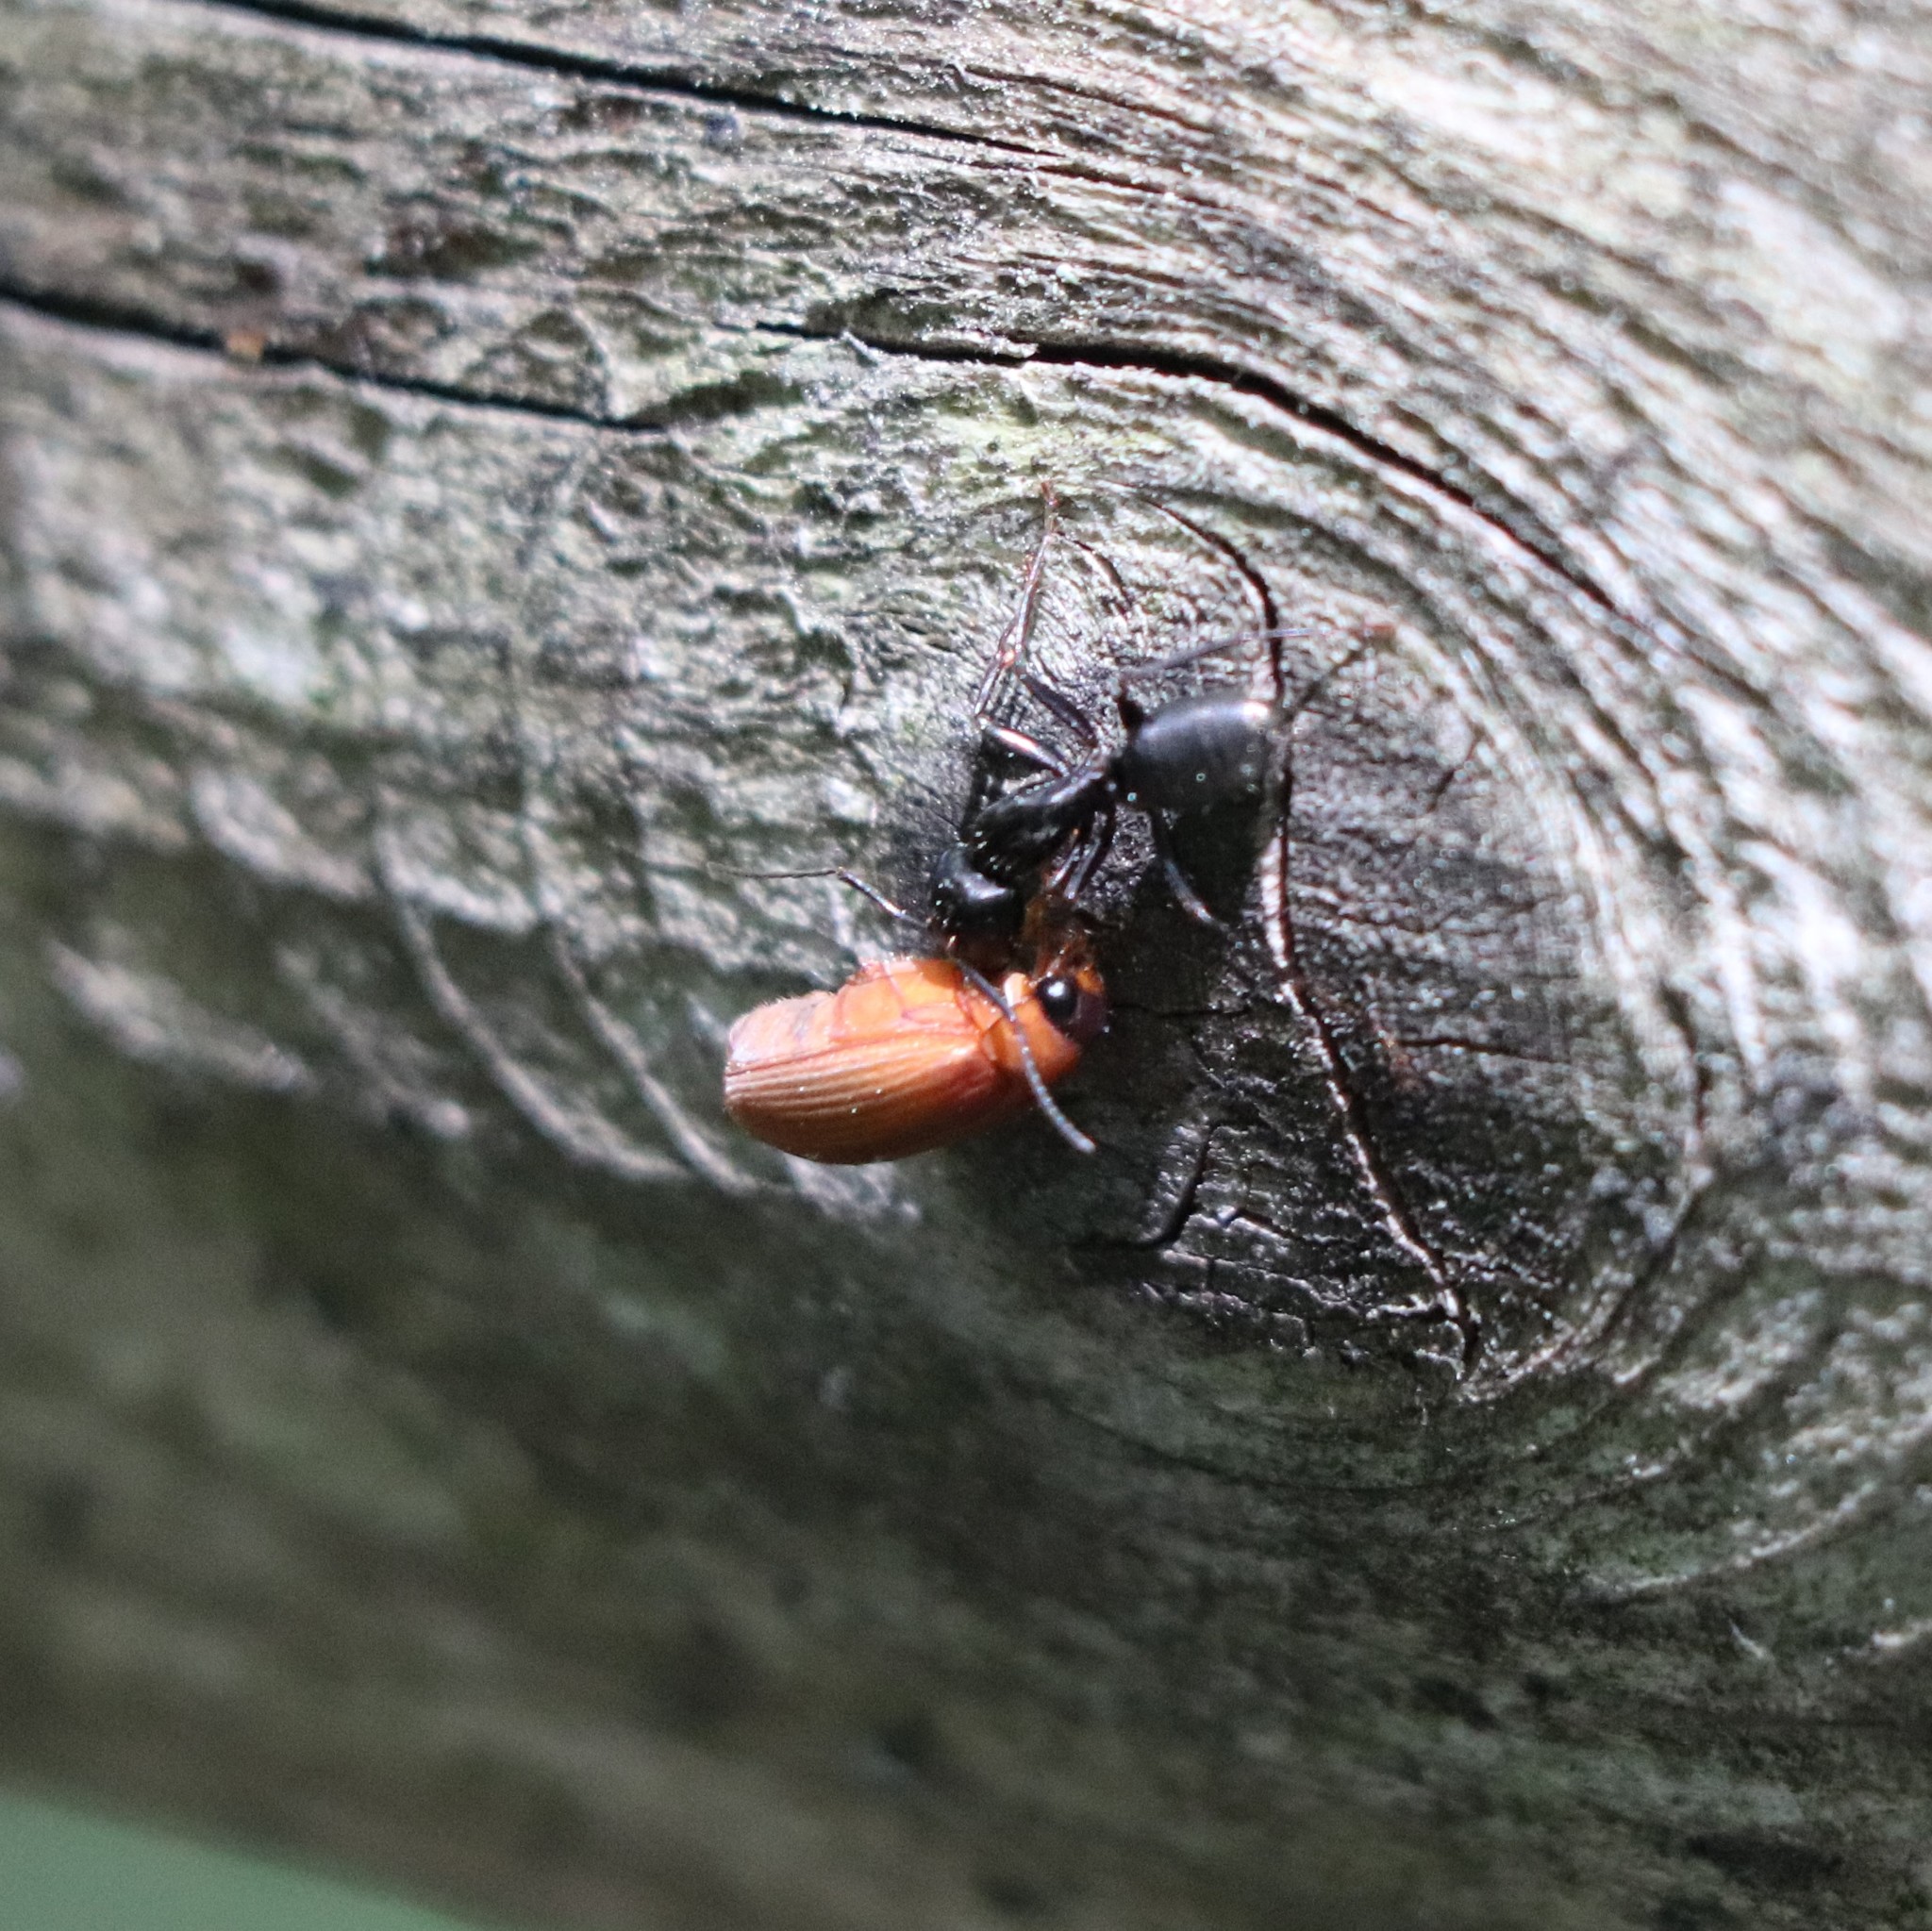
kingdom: Animalia
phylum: Arthropoda
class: Insecta
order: Hymenoptera
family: Formicidae
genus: Camponotus
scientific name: Camponotus pennsylvanicus
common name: Black carpenter ant
